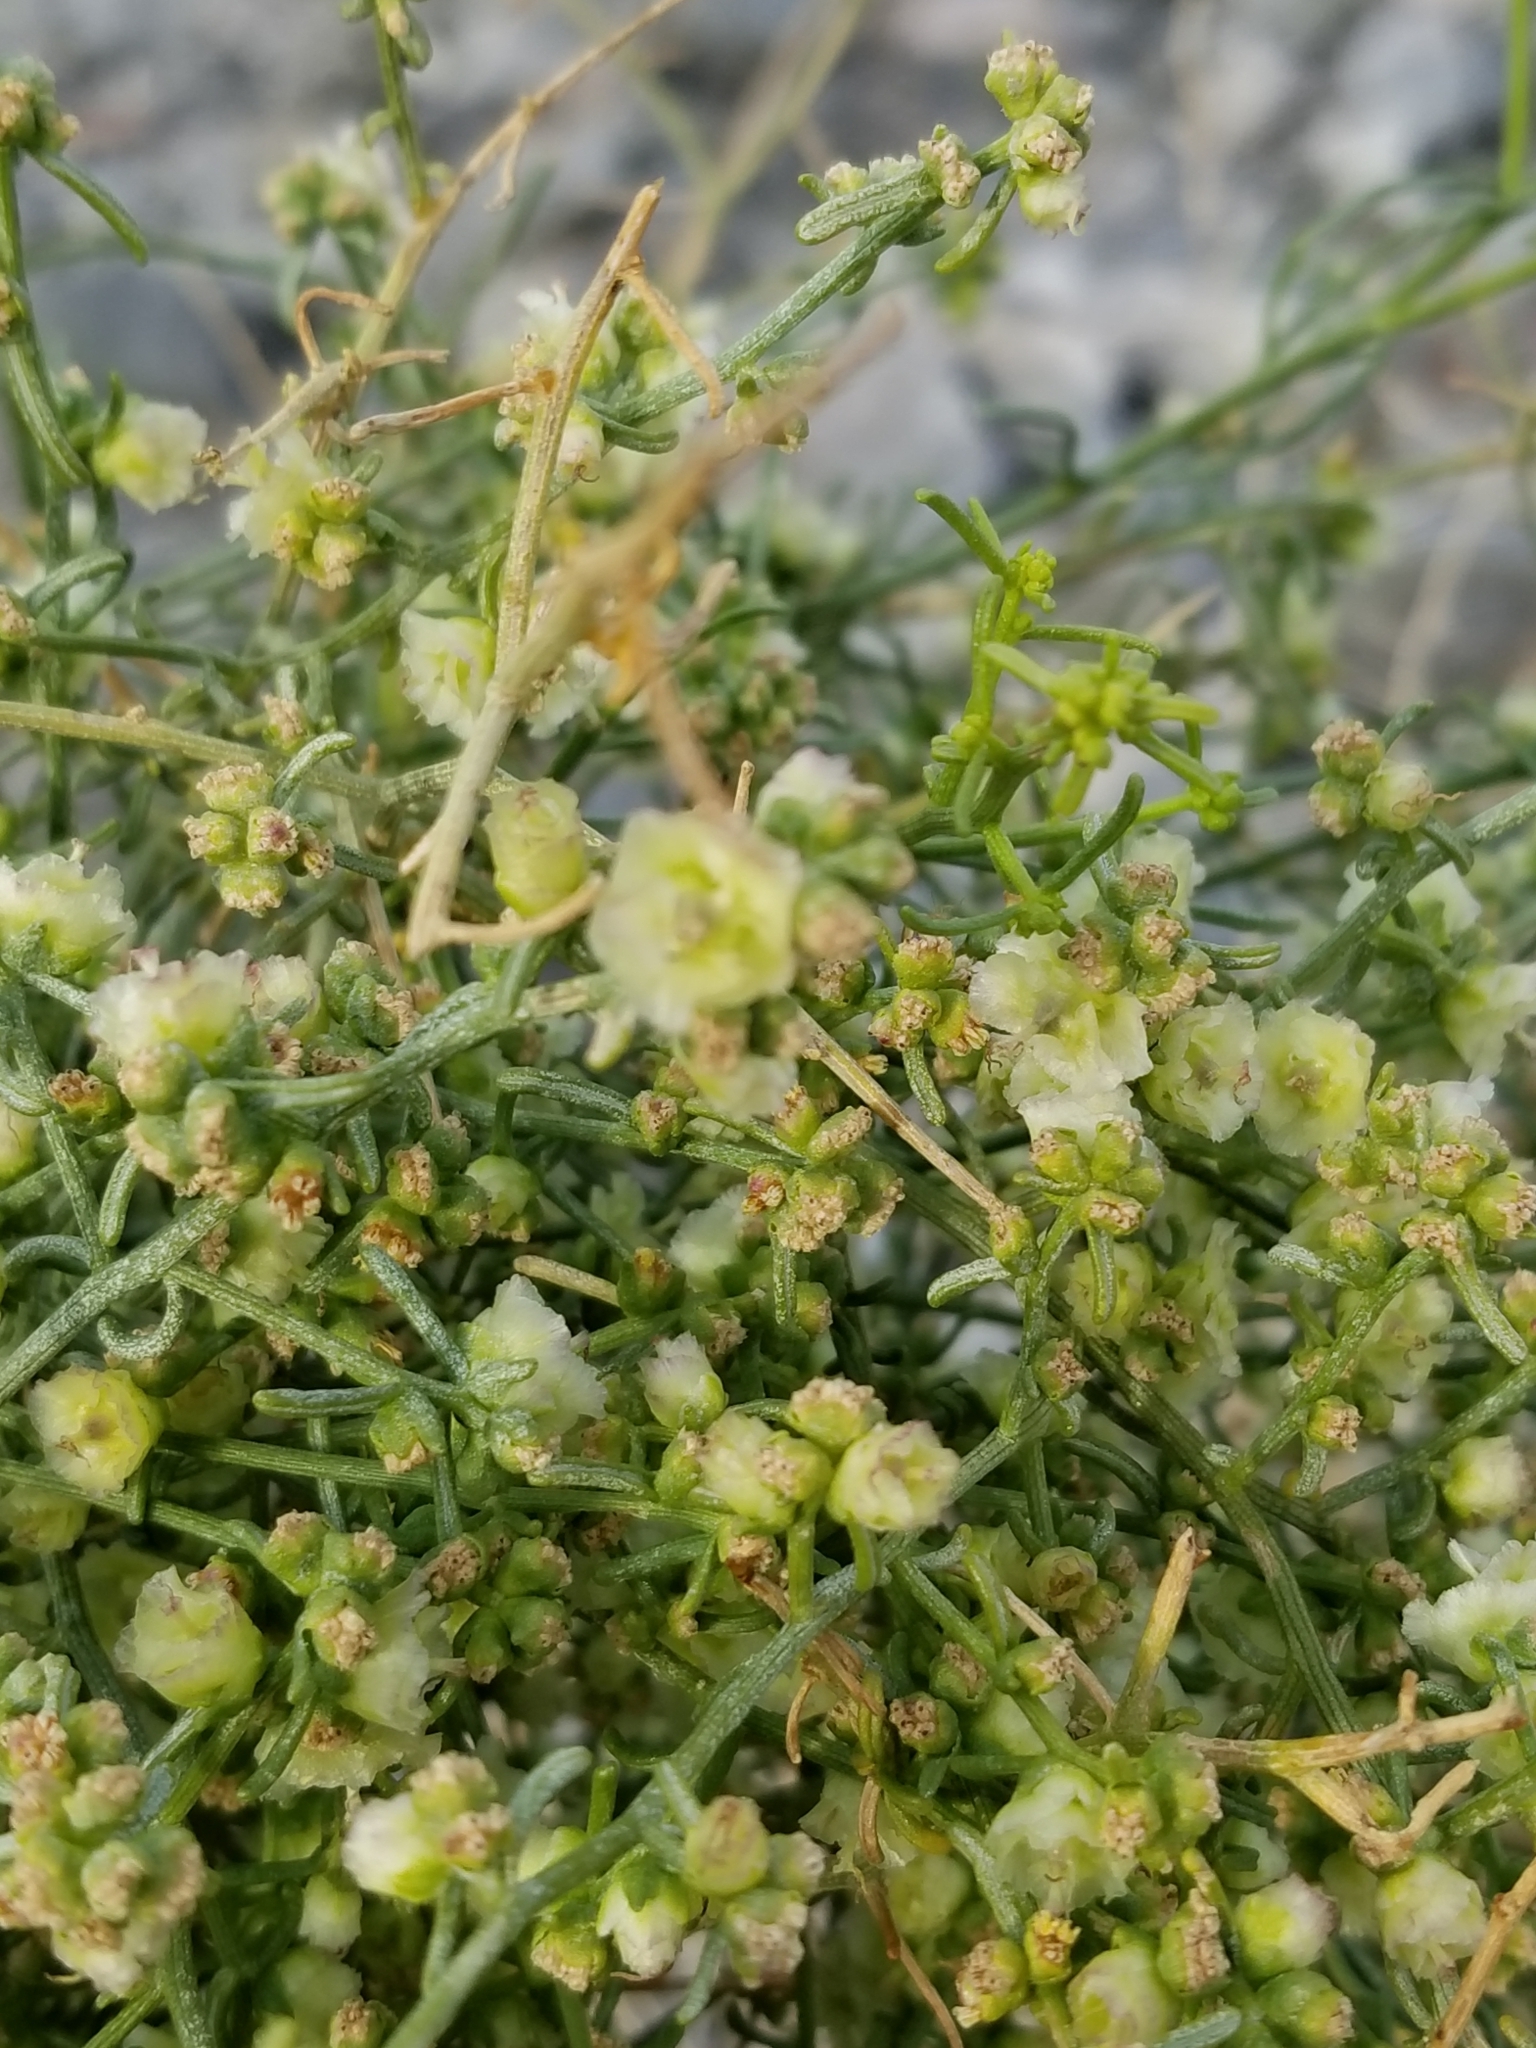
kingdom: Plantae
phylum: Tracheophyta
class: Magnoliopsida
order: Asterales
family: Asteraceae
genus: Ambrosia
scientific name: Ambrosia salsola
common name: Burrobrush
